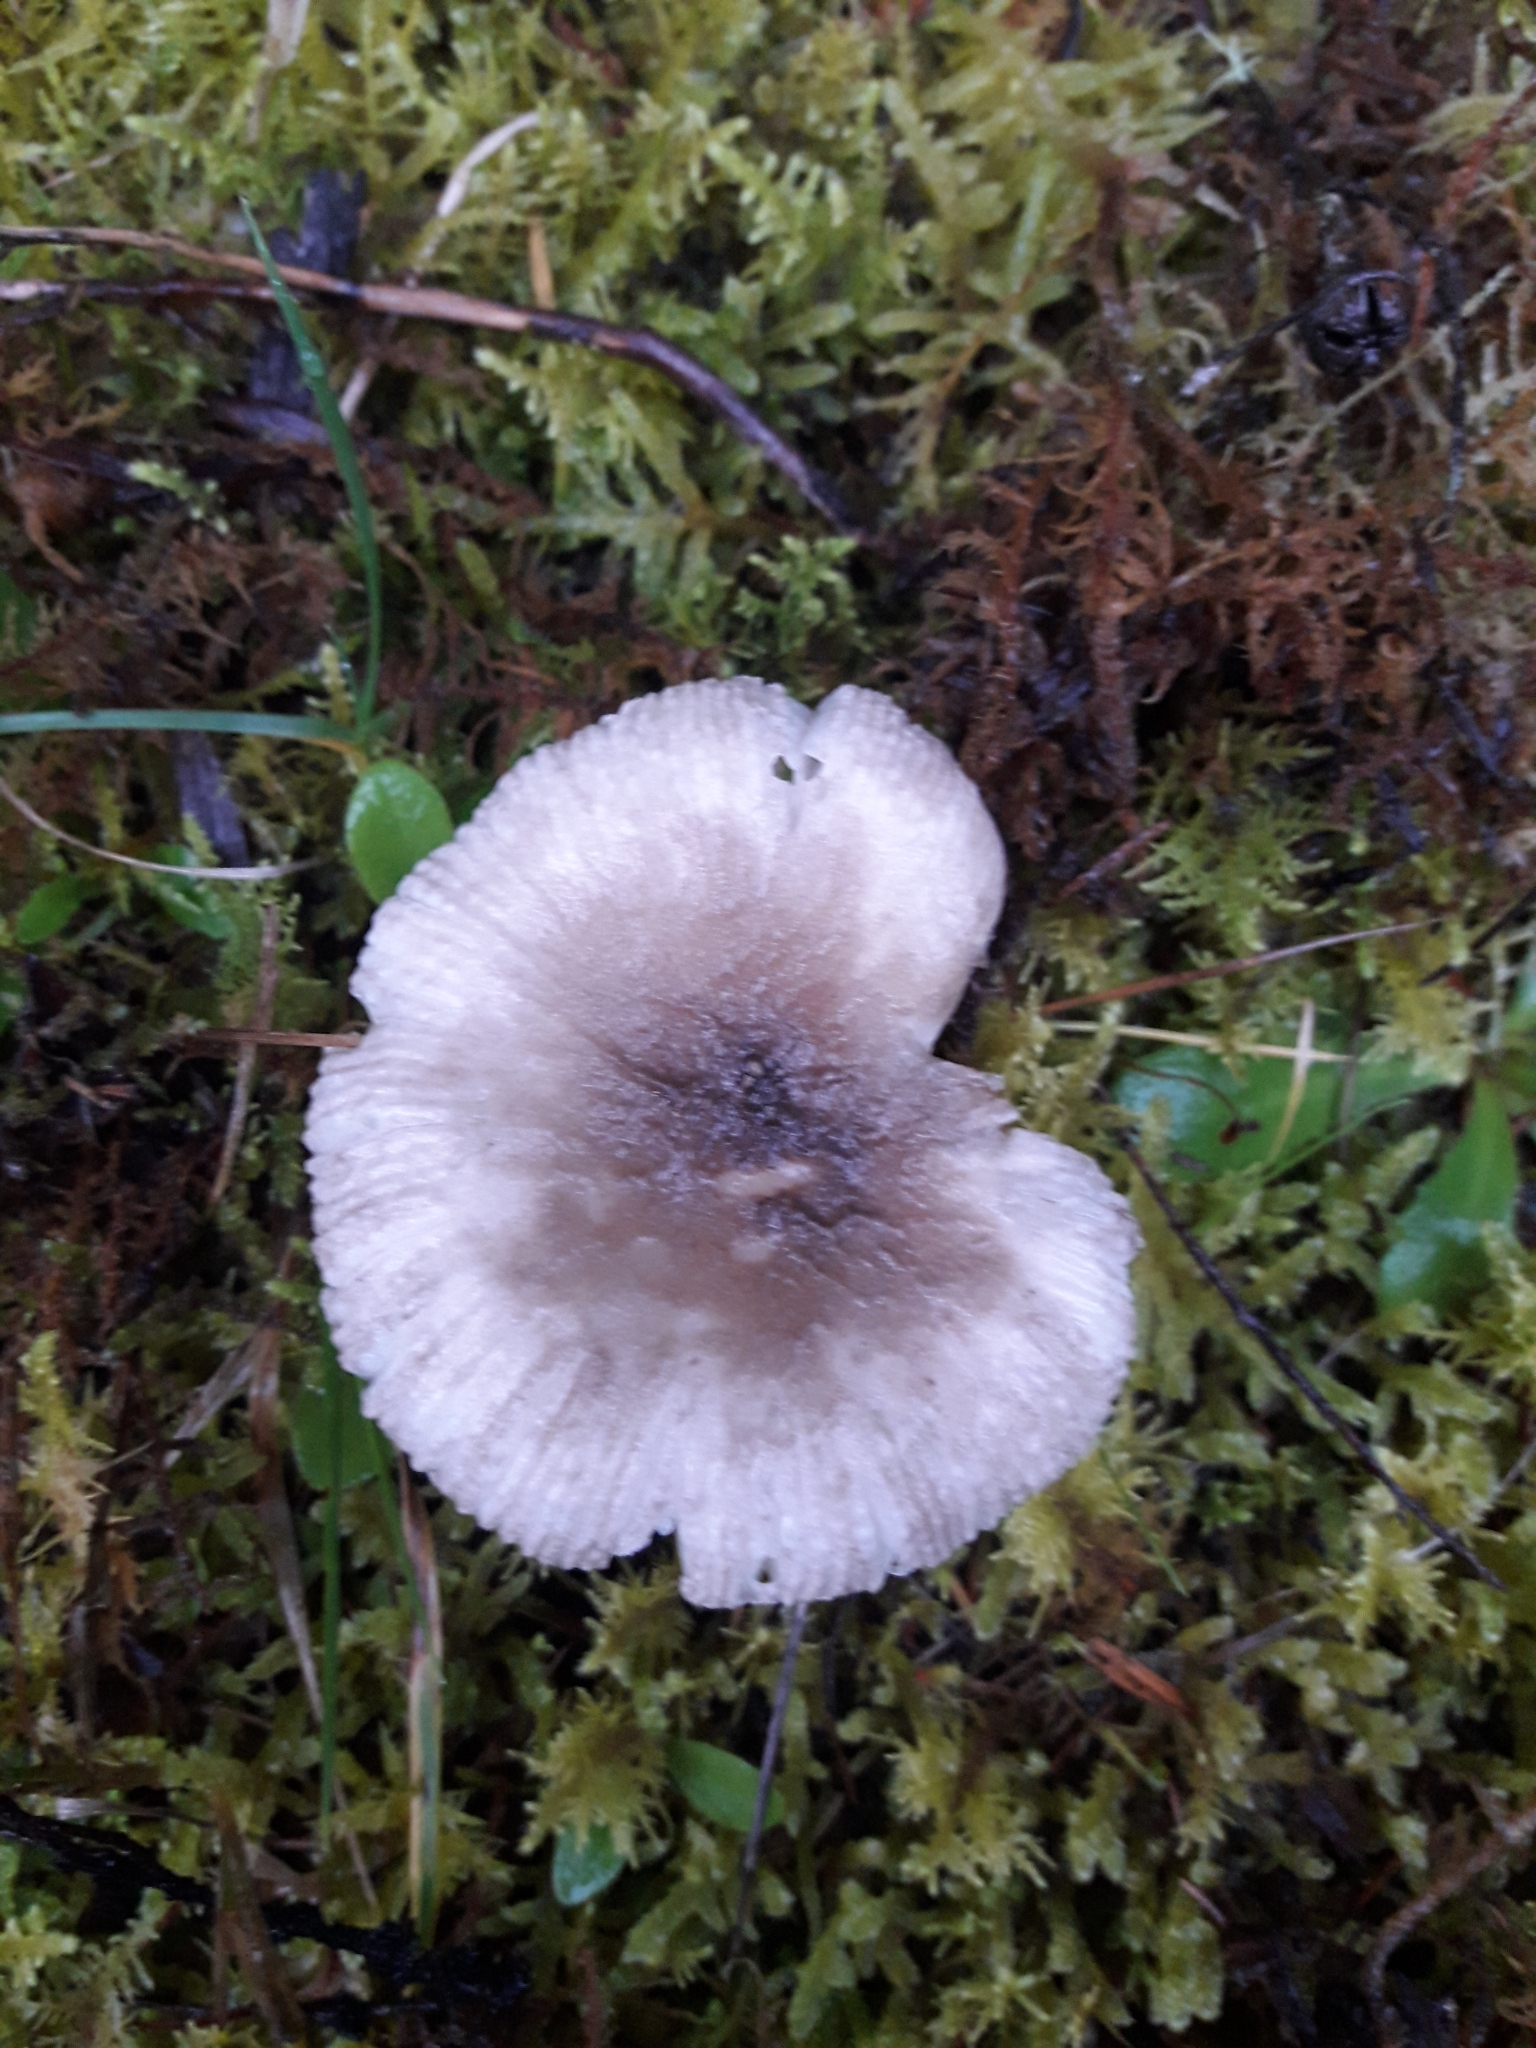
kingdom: Fungi
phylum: Basidiomycota
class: Agaricomycetes
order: Agaricales
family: Amanitaceae
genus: Amanita
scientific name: Amanita nehuta
